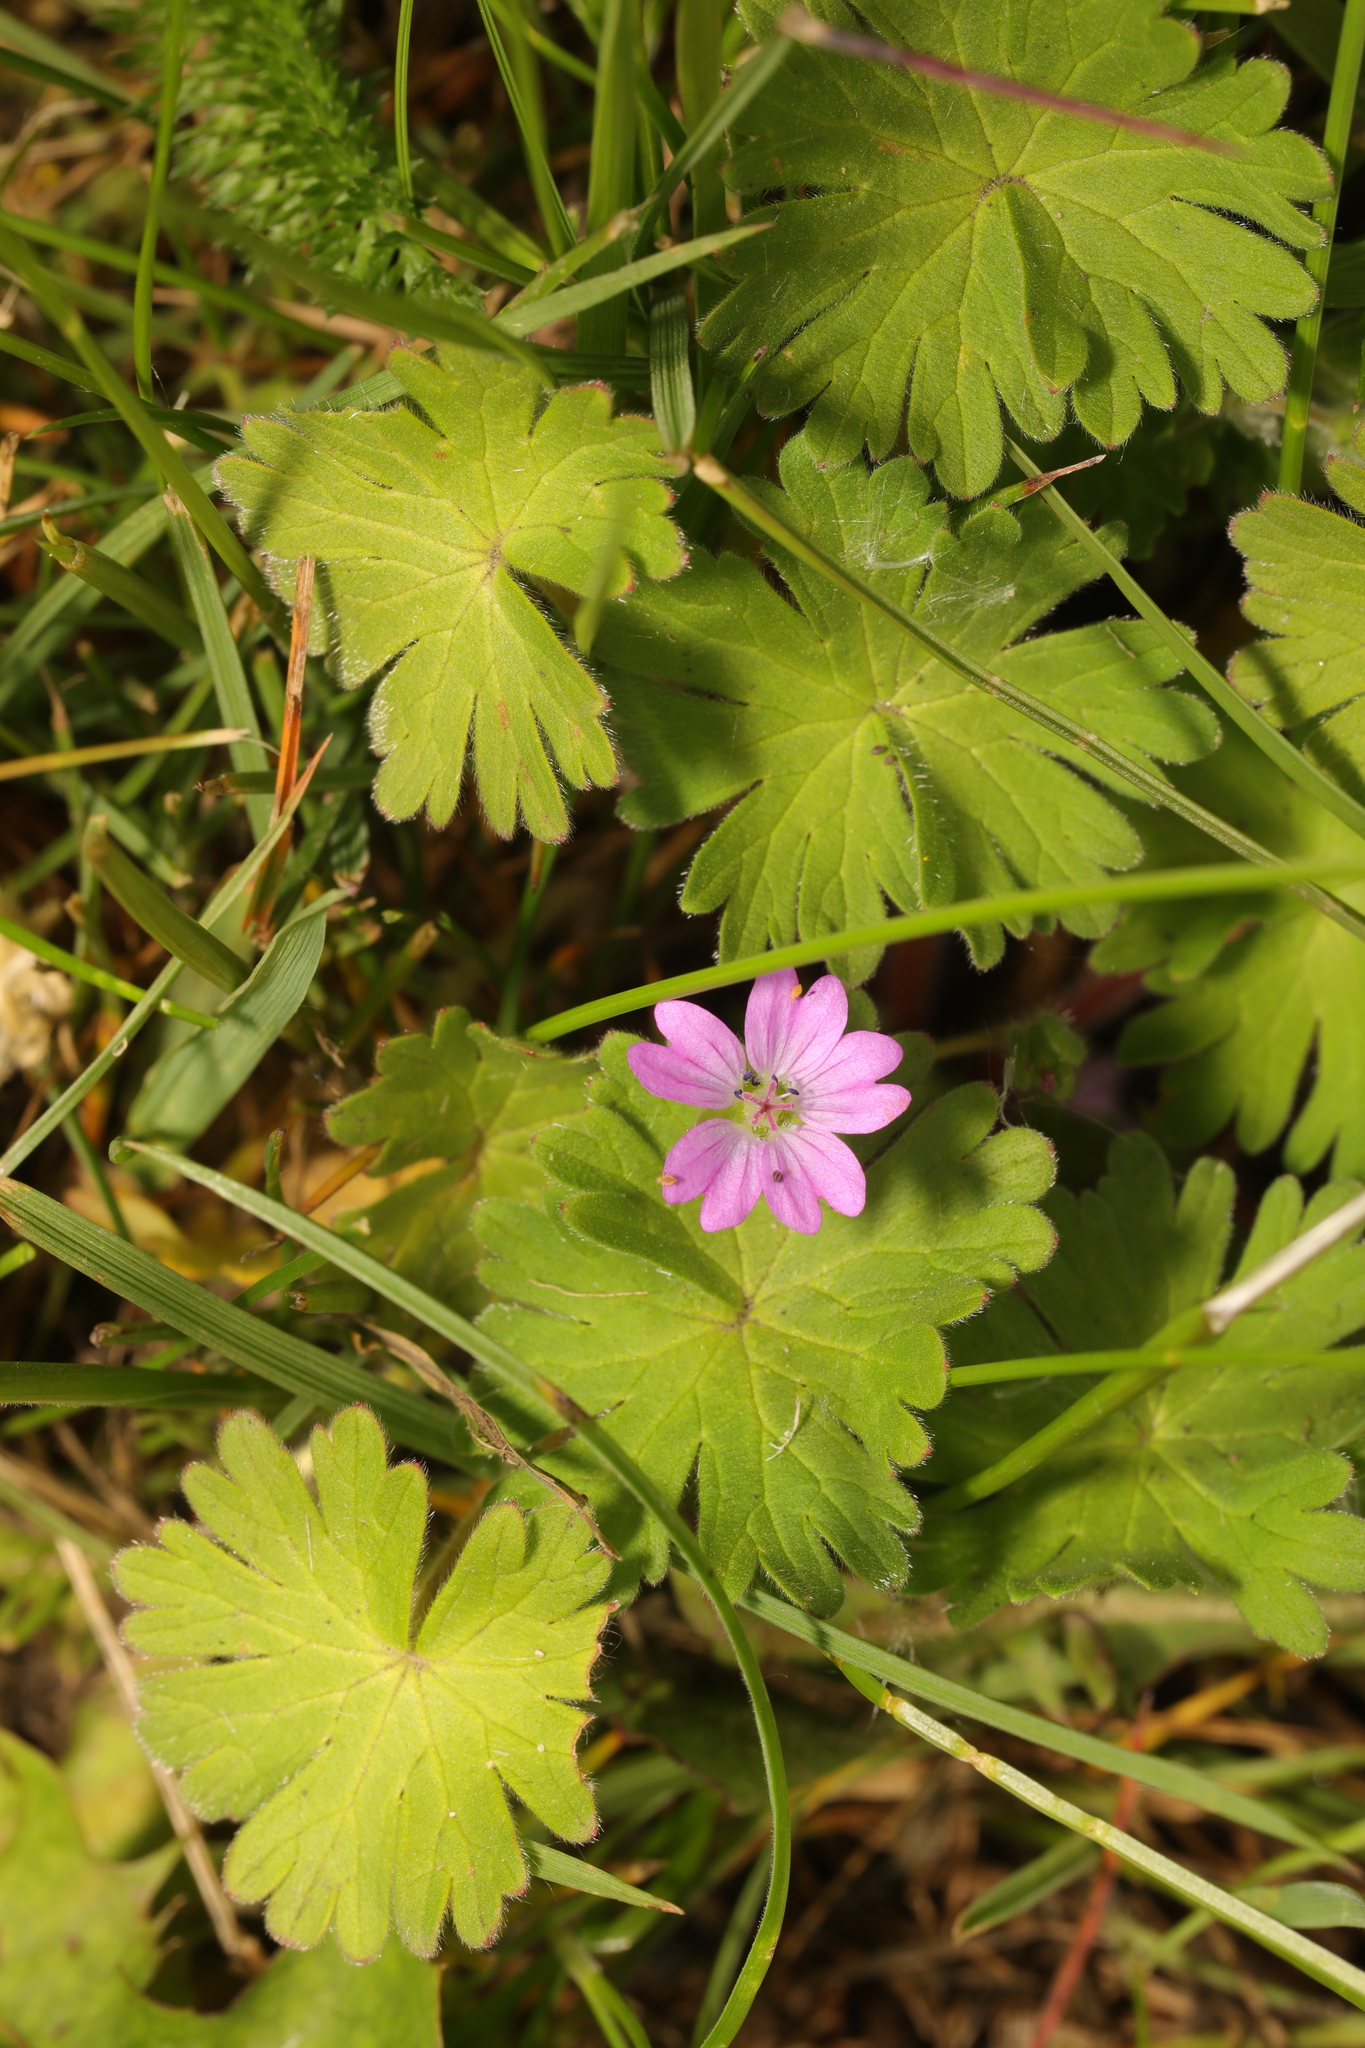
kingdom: Plantae
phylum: Tracheophyta
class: Magnoliopsida
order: Geraniales
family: Geraniaceae
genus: Geranium
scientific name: Geranium molle
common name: Dove's-foot crane's-bill
